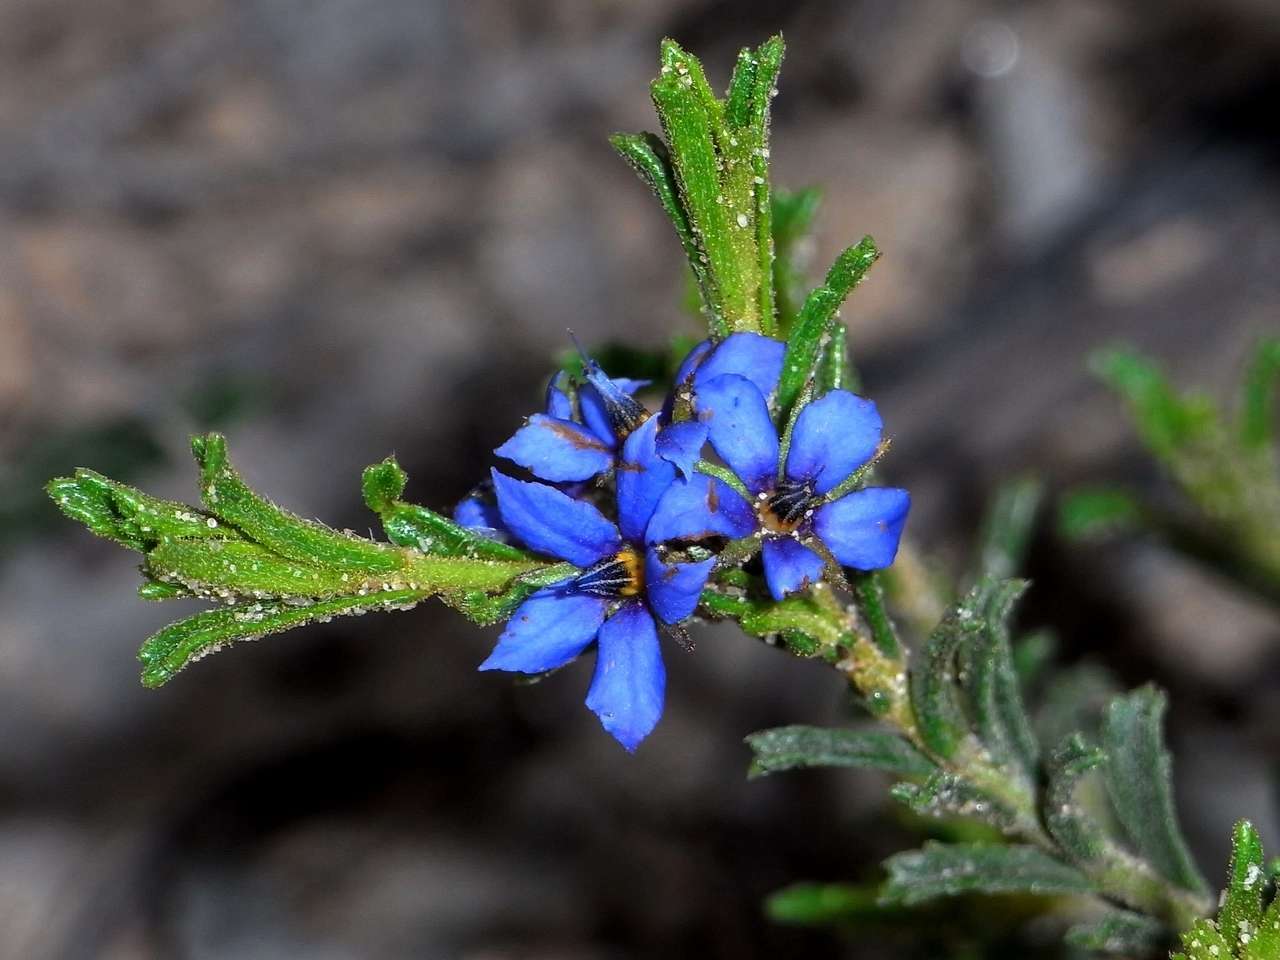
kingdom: Plantae
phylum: Tracheophyta
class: Magnoliopsida
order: Boraginales
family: Ehretiaceae
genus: Halgania
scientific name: Halgania cyanea
